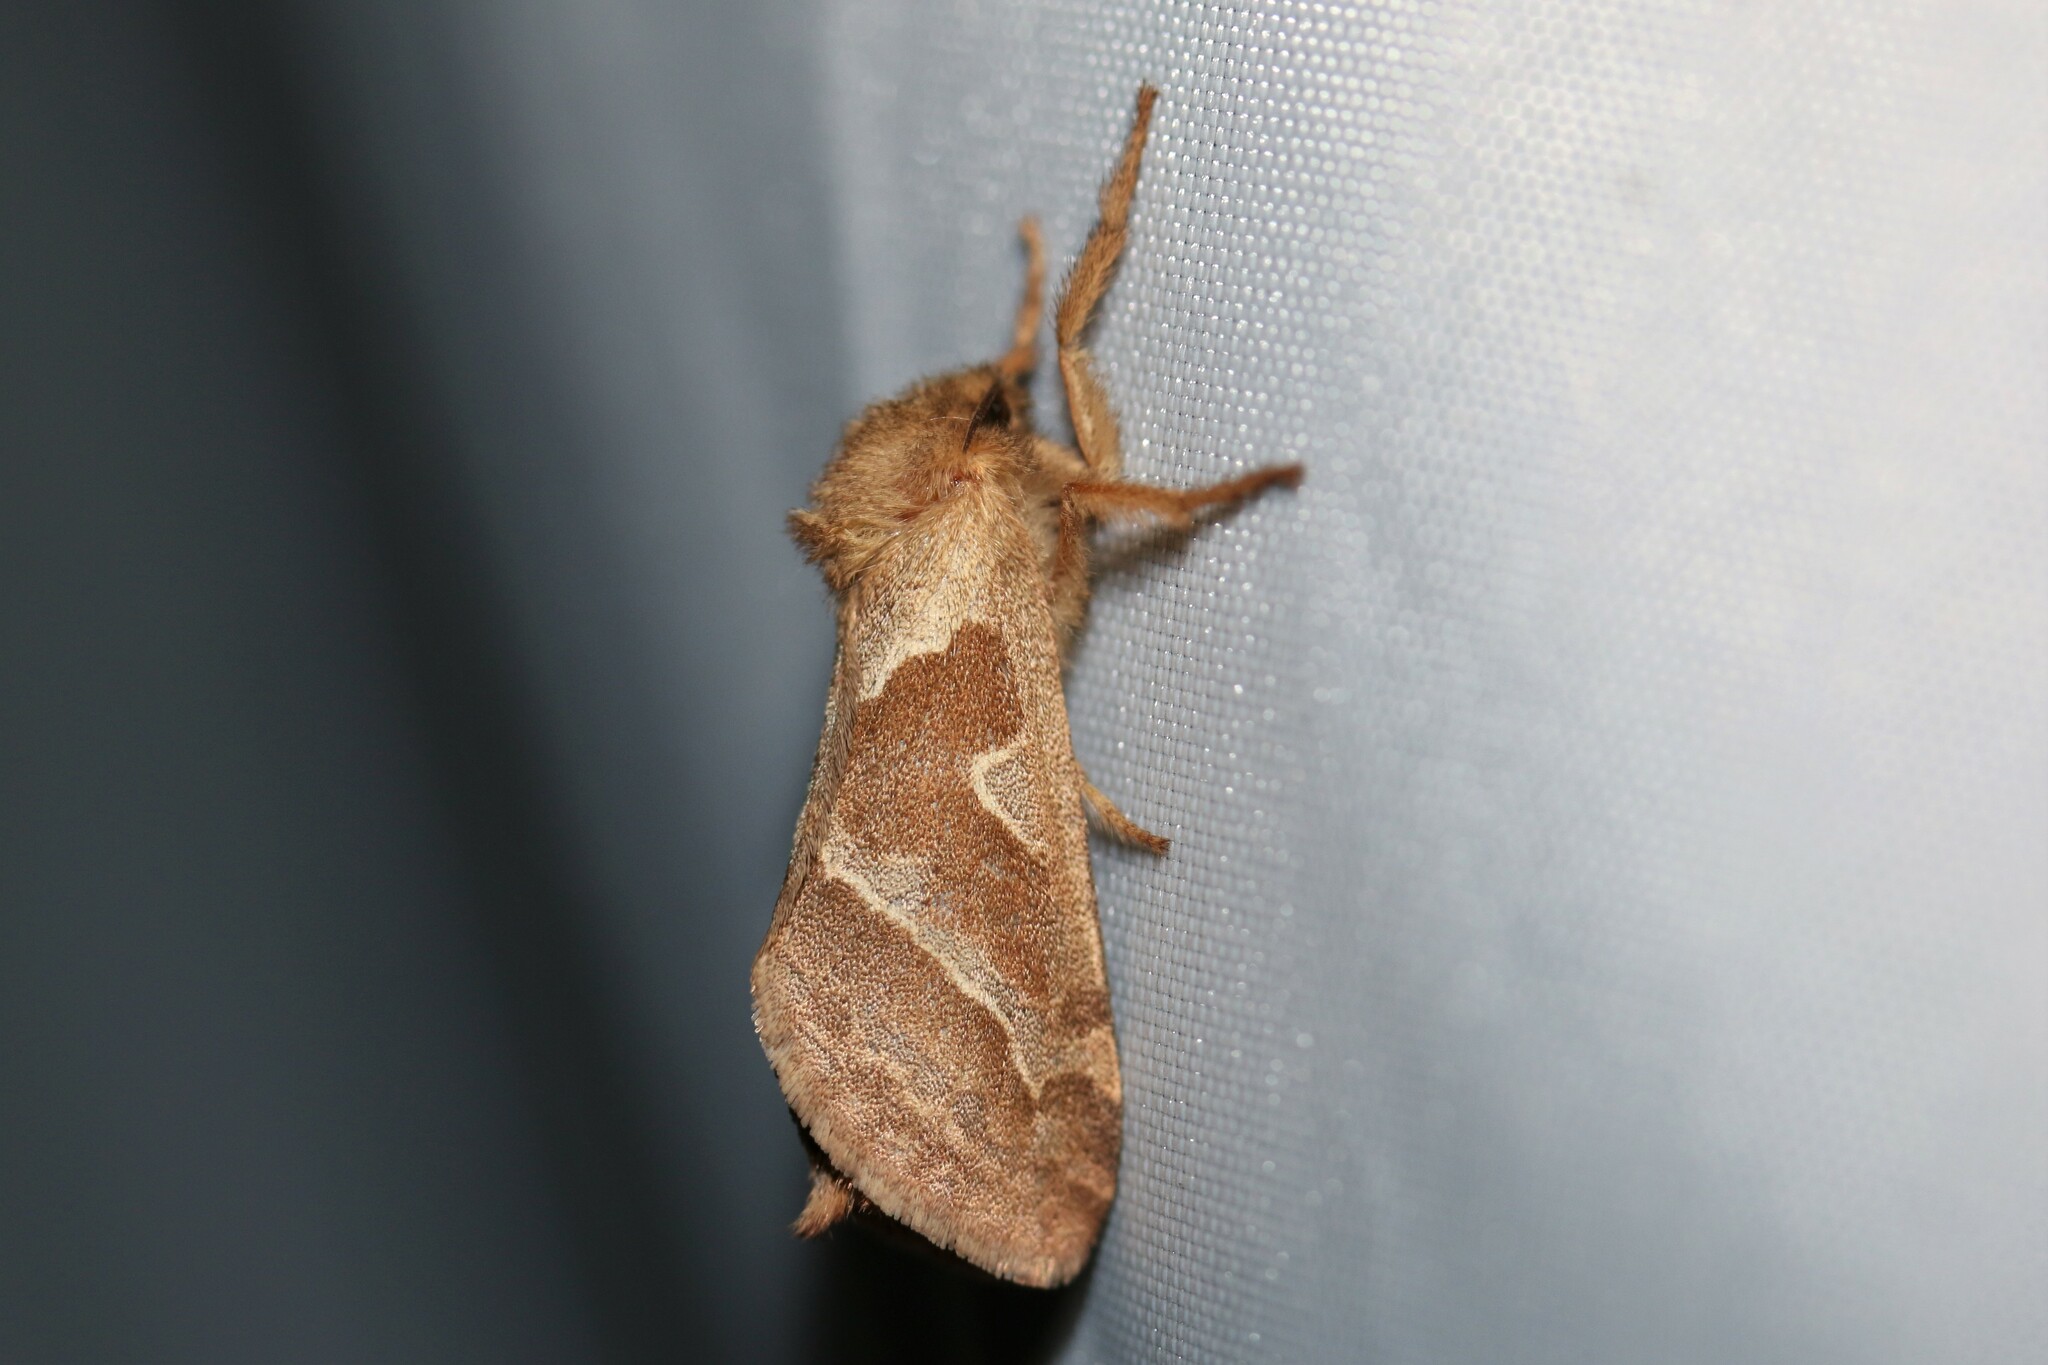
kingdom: Animalia
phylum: Arthropoda
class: Insecta
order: Lepidoptera
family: Hepialidae
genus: Triodia
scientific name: Triodia sylvina
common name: Orange swift
